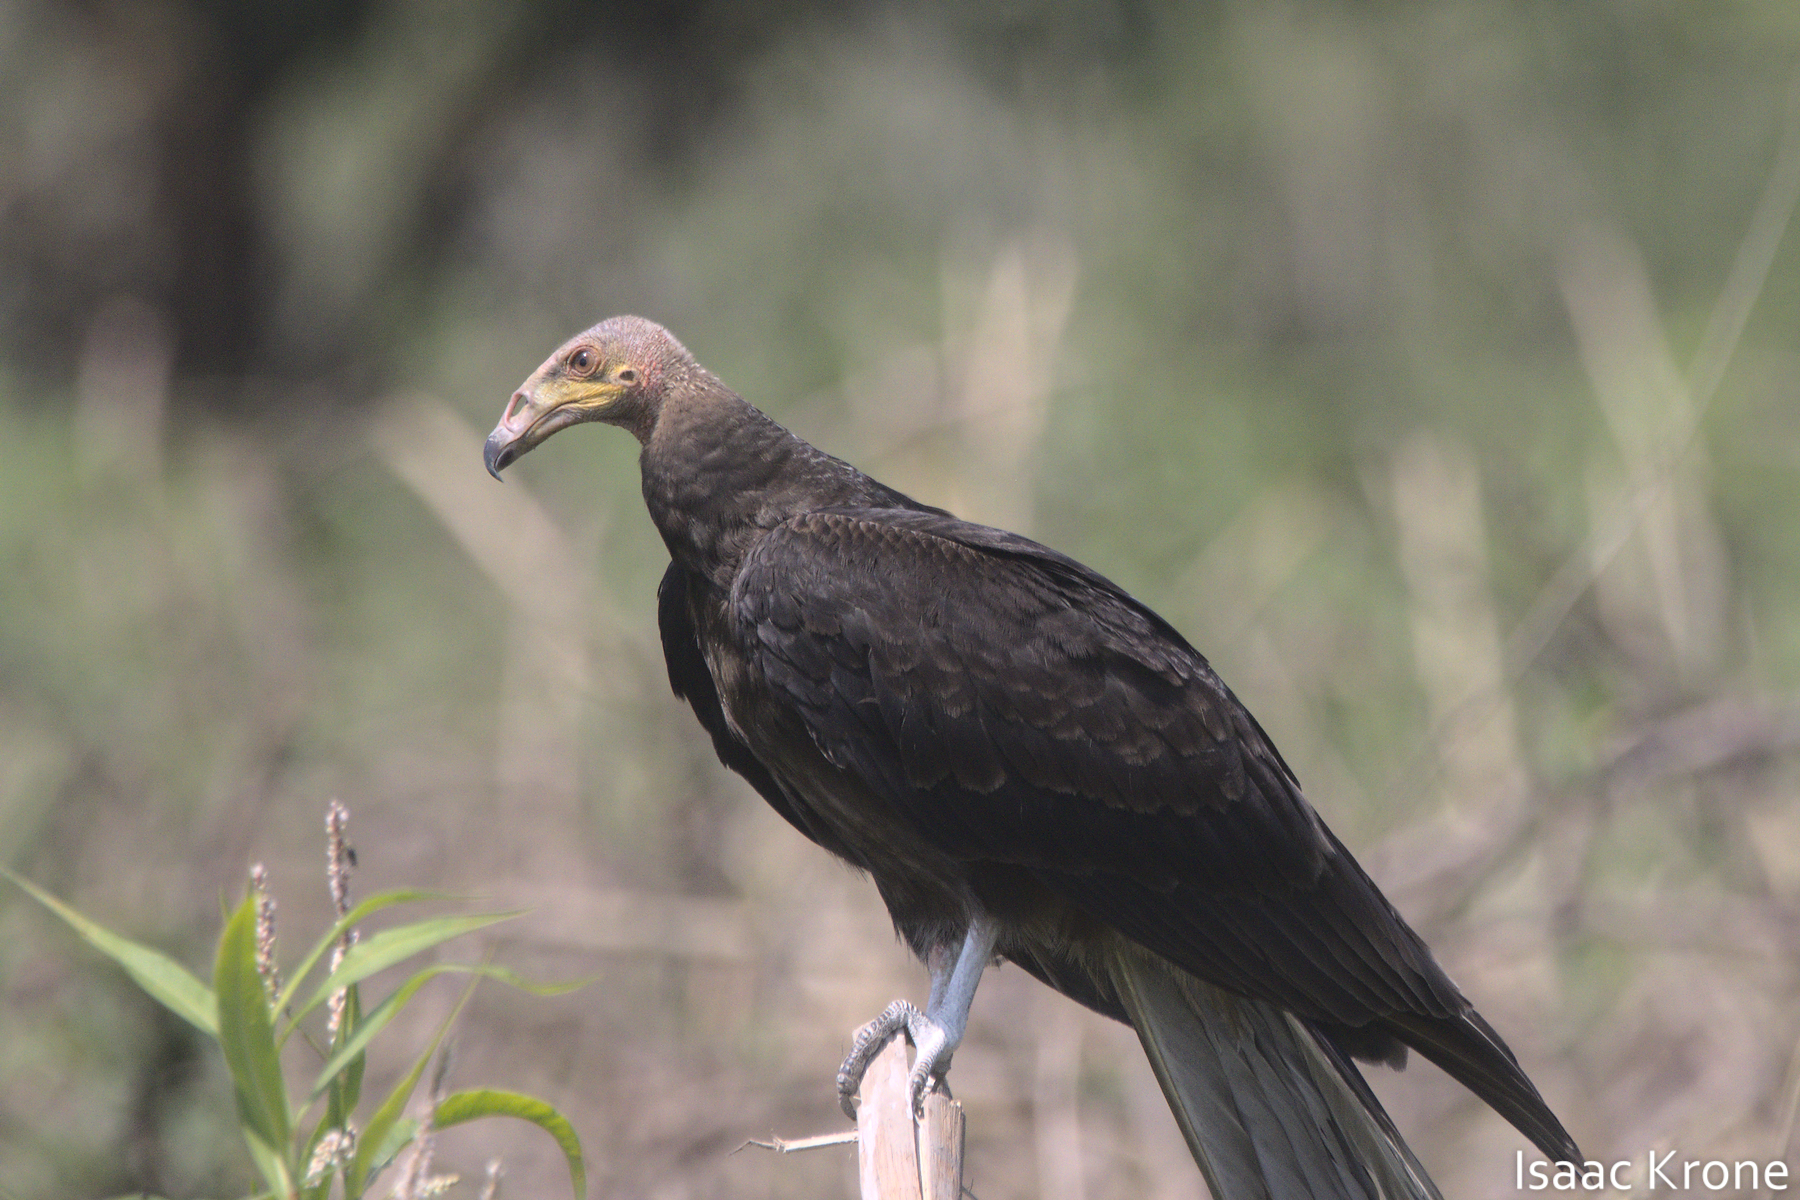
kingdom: Animalia
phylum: Chordata
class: Aves
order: Accipitriformes
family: Cathartidae
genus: Cathartes
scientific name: Cathartes burrovianus
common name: Lesser yellow-headed vulture
